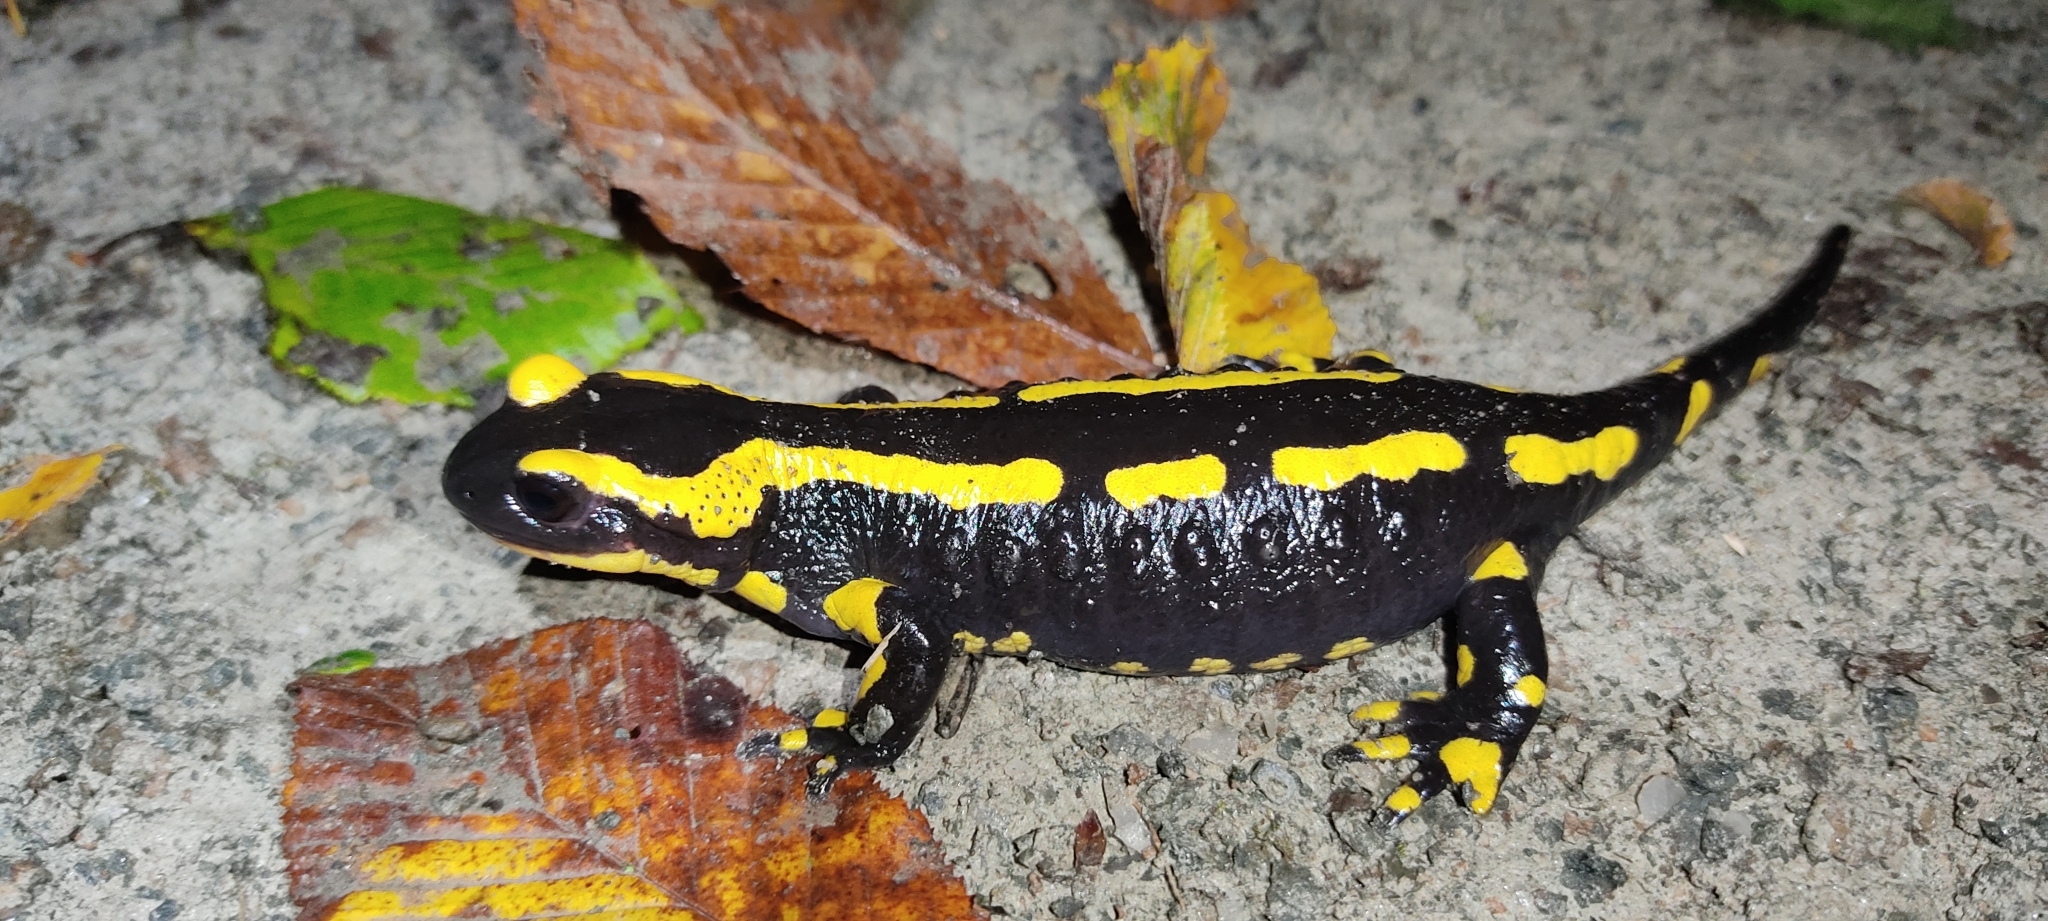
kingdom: Animalia
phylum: Chordata
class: Amphibia
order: Caudata
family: Salamandridae
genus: Salamandra
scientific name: Salamandra salamandra
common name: Fire salamander
